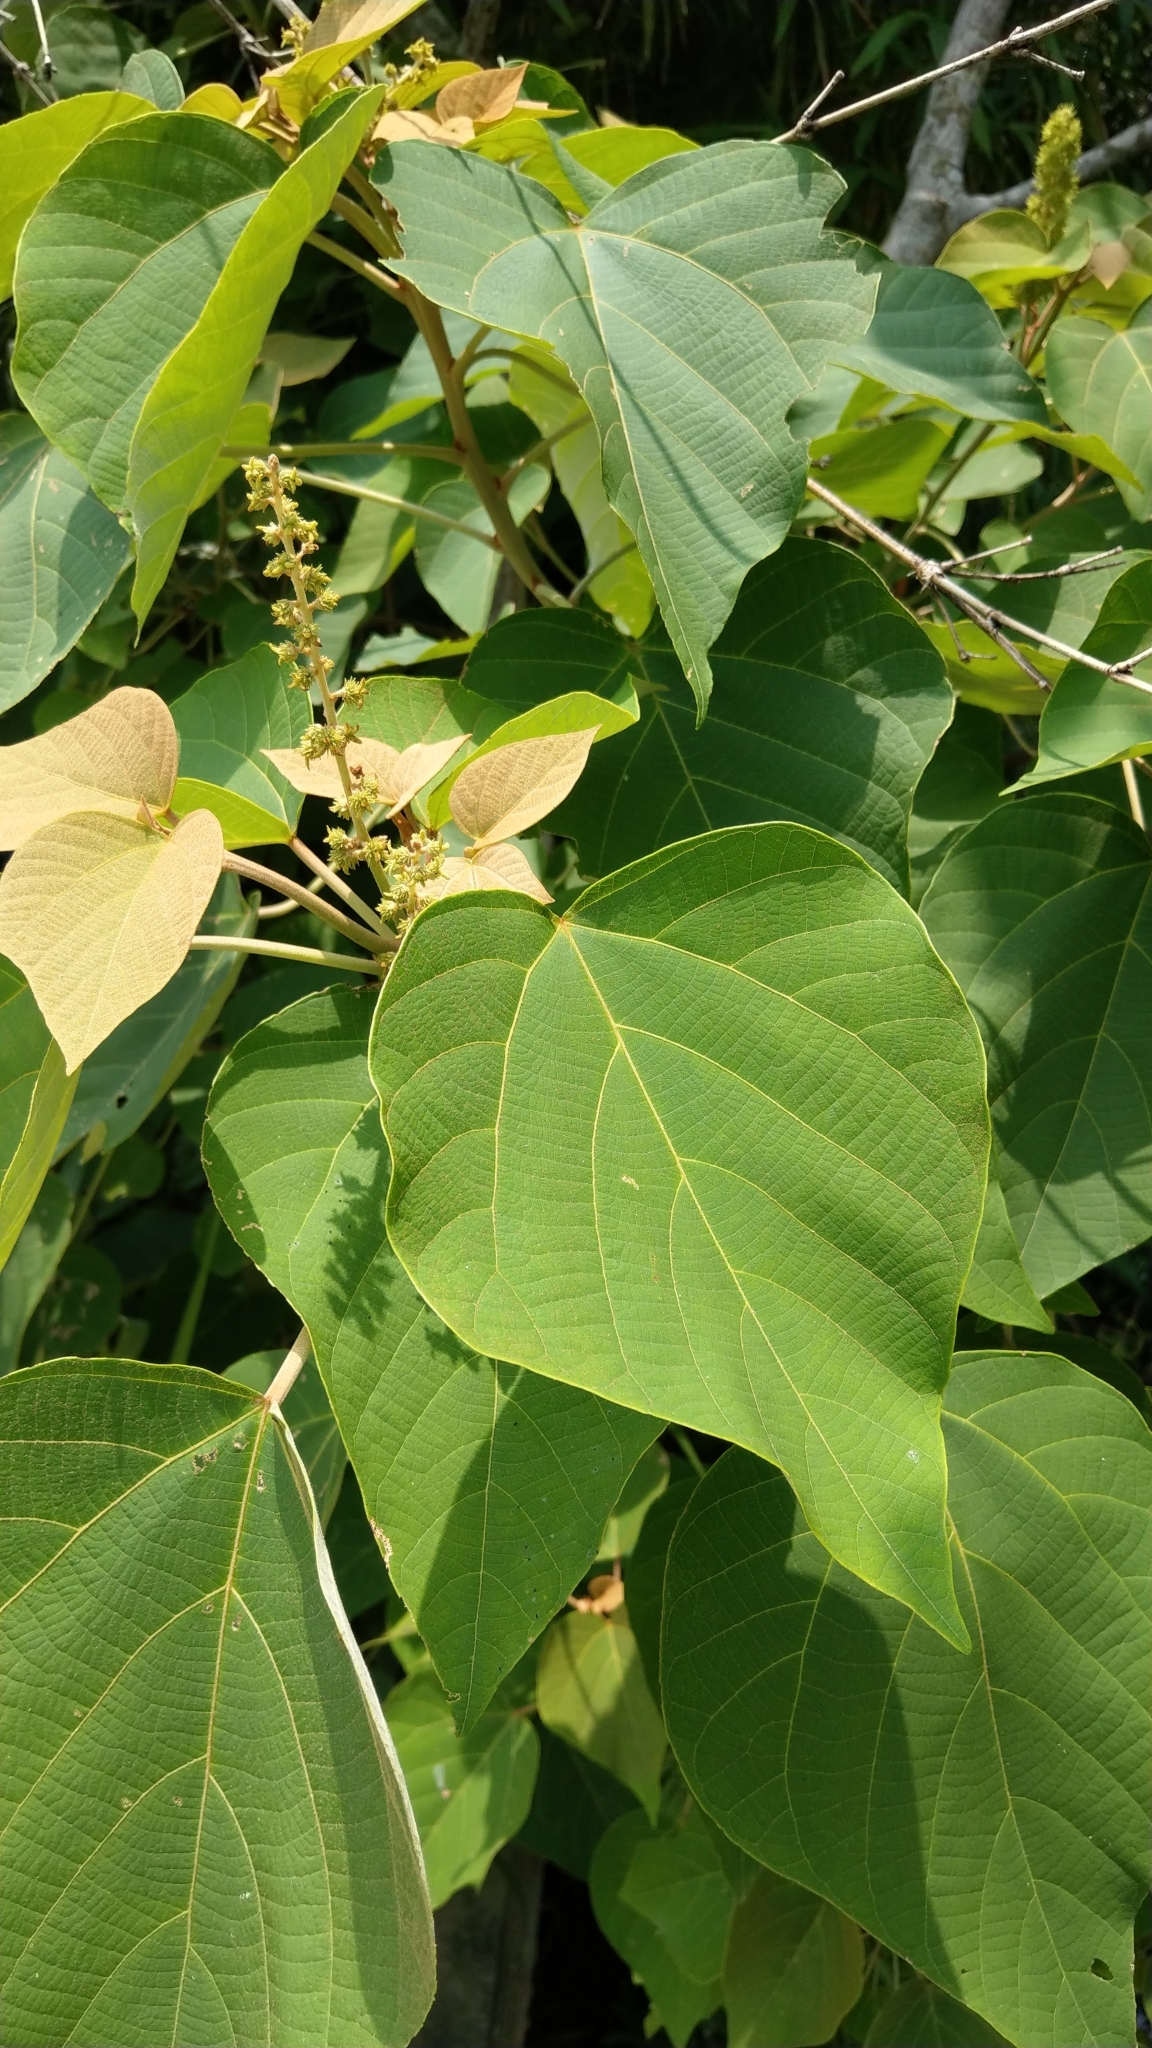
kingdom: Plantae
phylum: Tracheophyta
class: Magnoliopsida
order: Malpighiales
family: Euphorbiaceae
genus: Mallotus
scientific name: Mallotus japonicus
